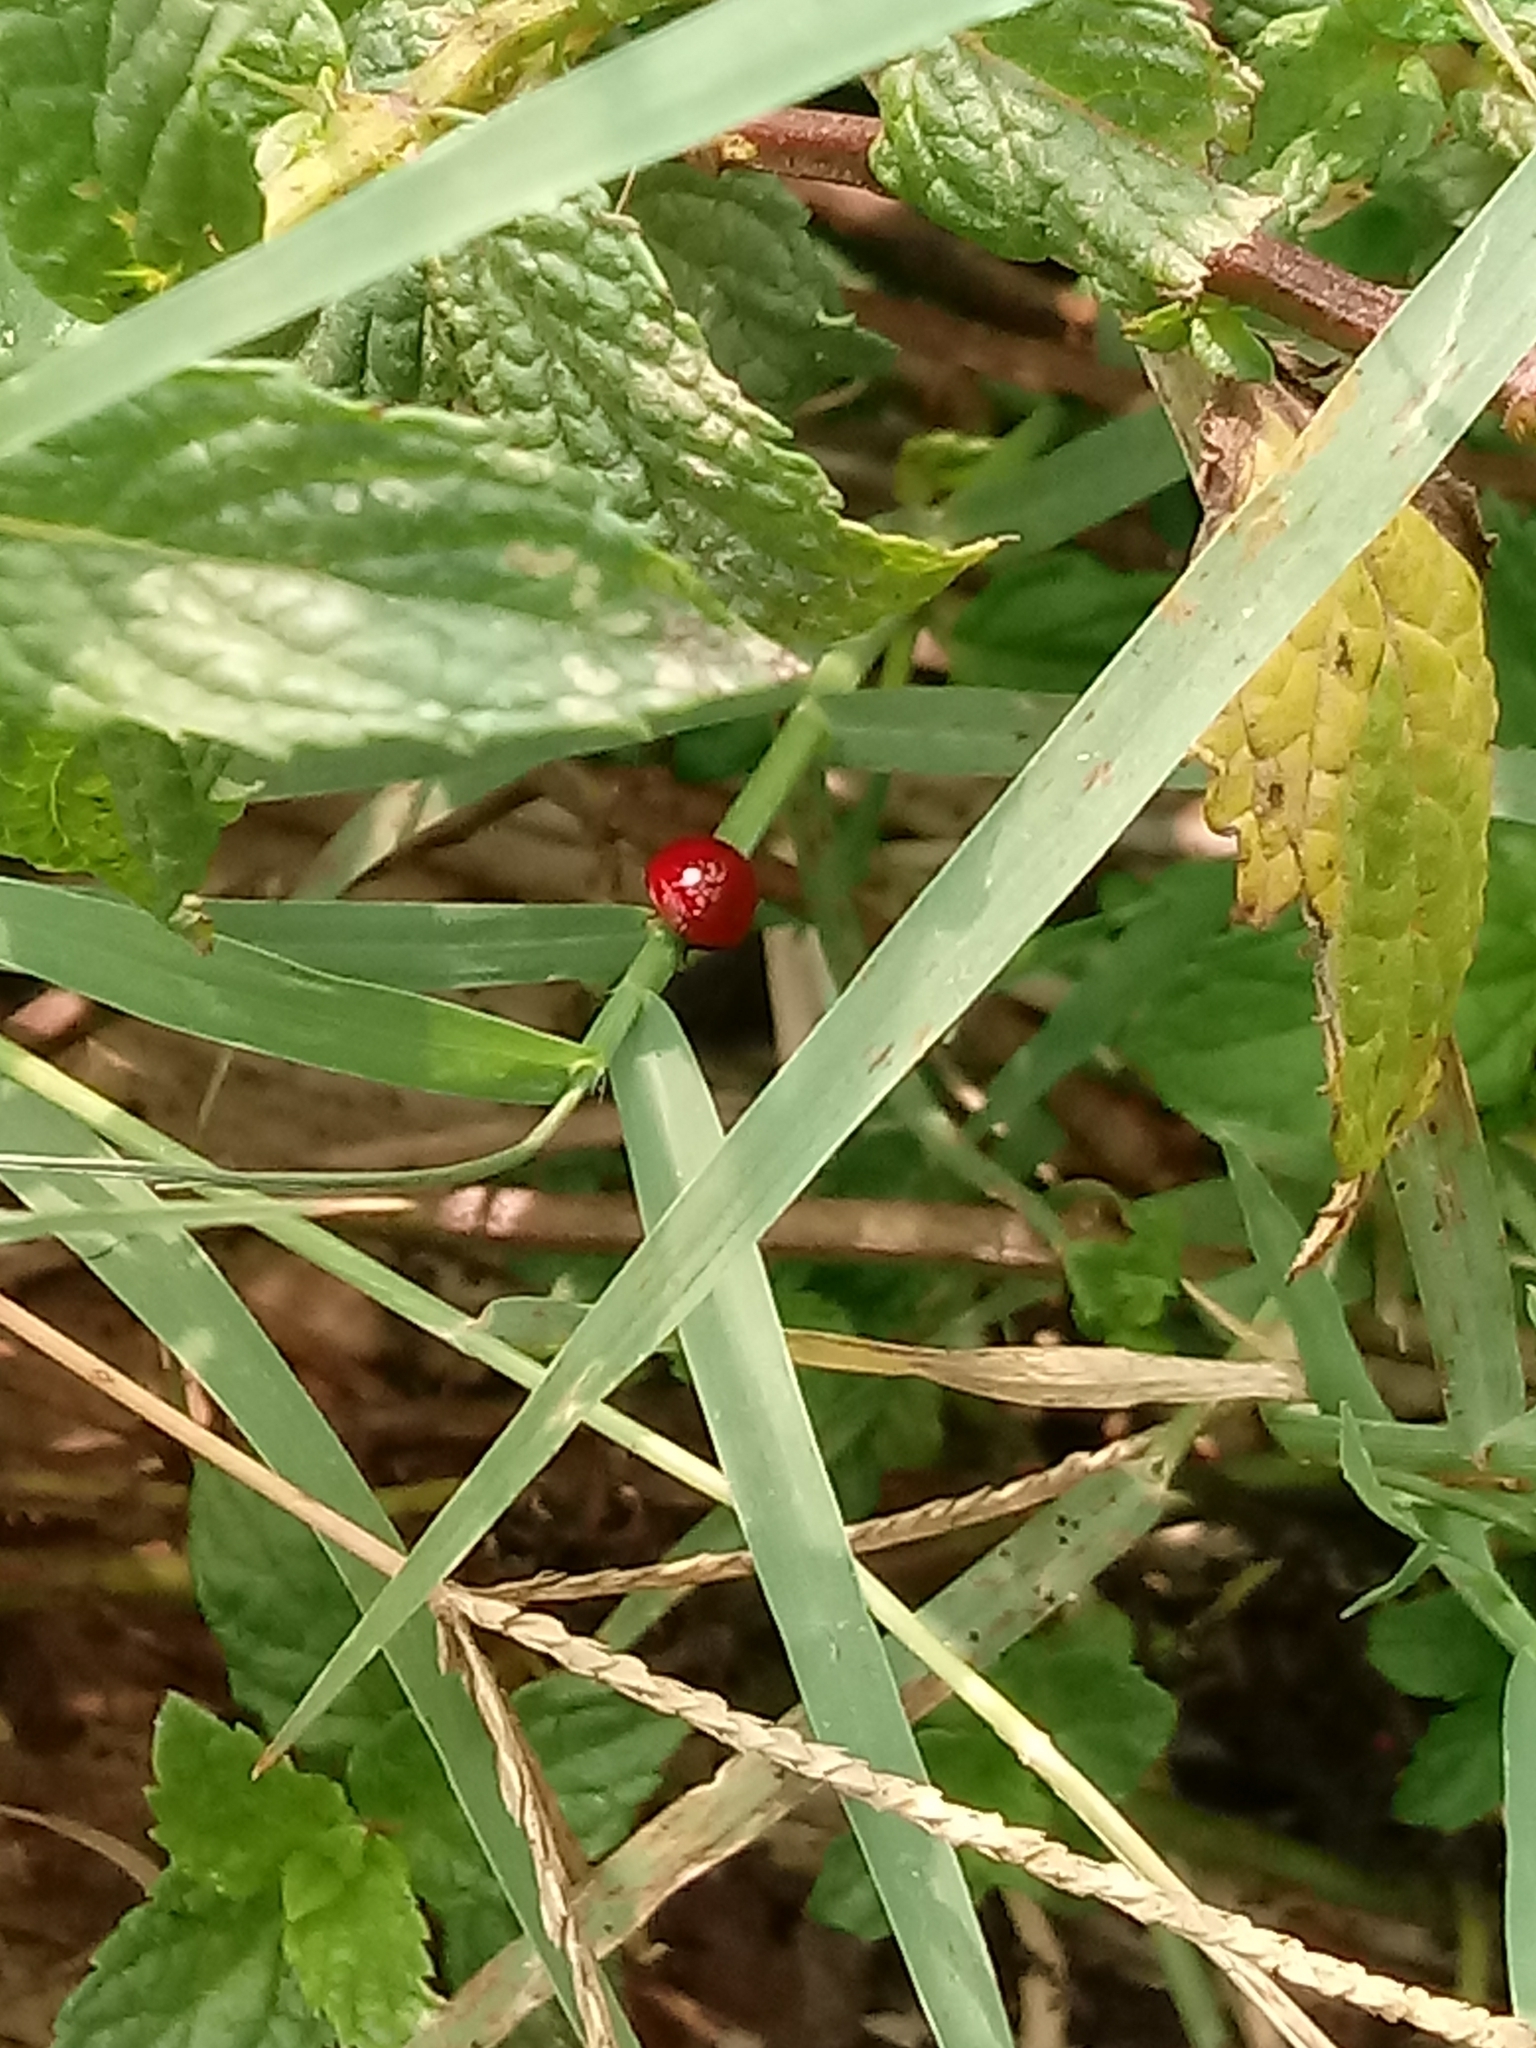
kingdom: Animalia
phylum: Arthropoda
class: Insecta
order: Coleoptera
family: Coccinellidae
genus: Cycloneda
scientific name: Cycloneda
